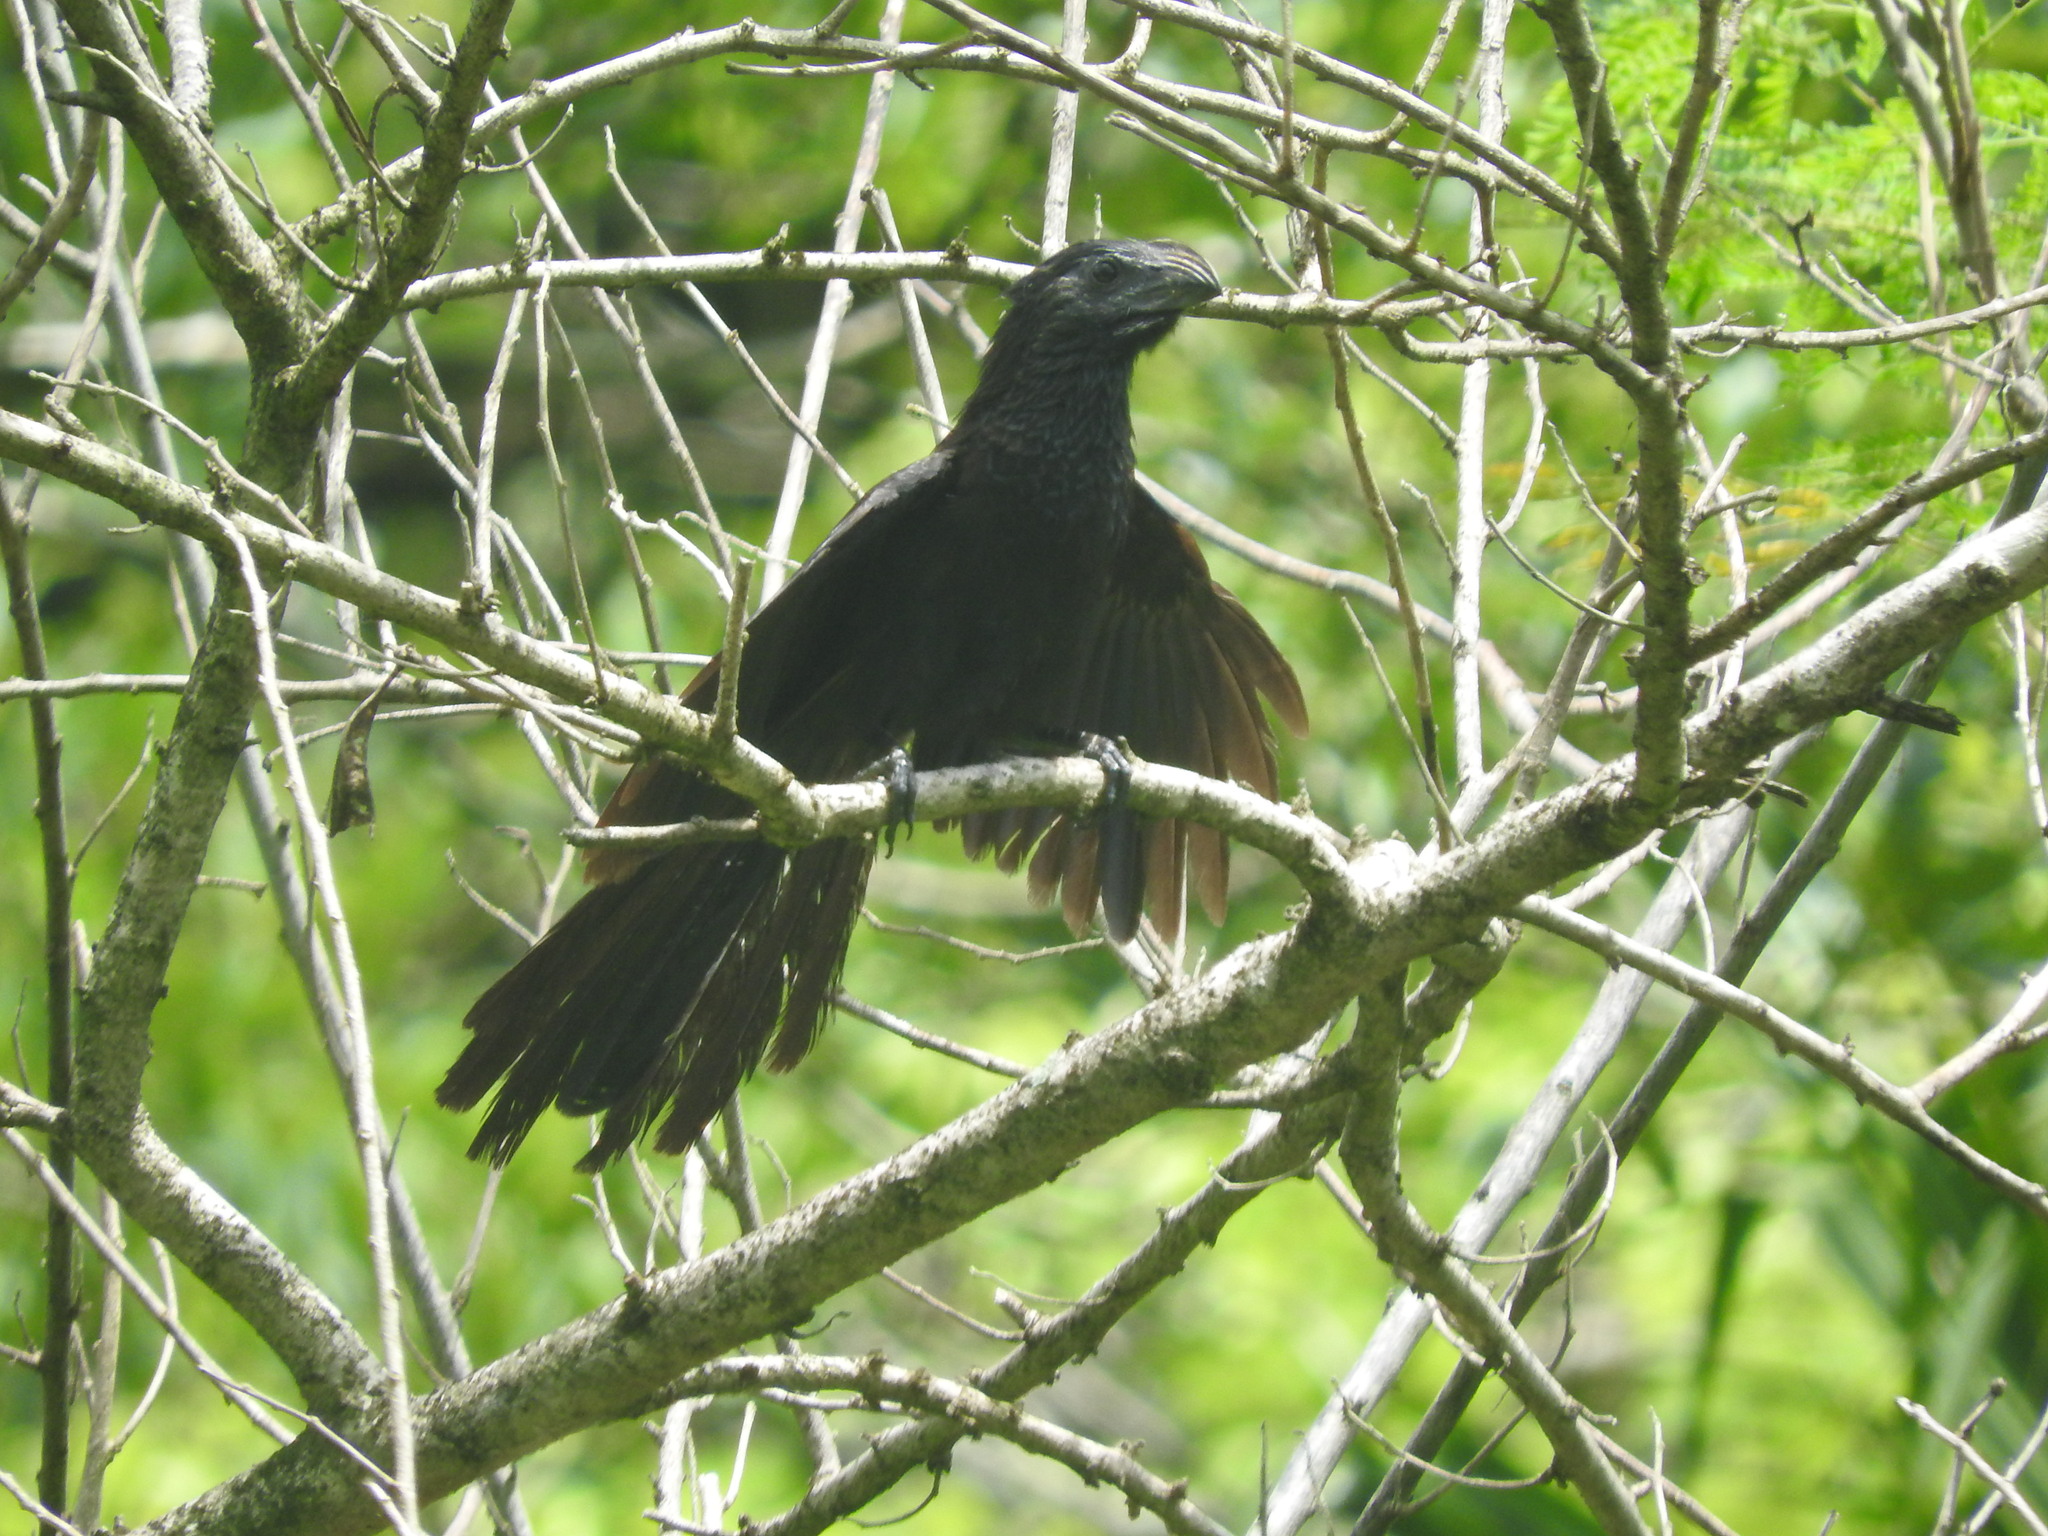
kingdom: Animalia
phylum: Chordata
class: Aves
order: Cuculiformes
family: Cuculidae
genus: Crotophaga
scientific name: Crotophaga sulcirostris
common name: Groove-billed ani
